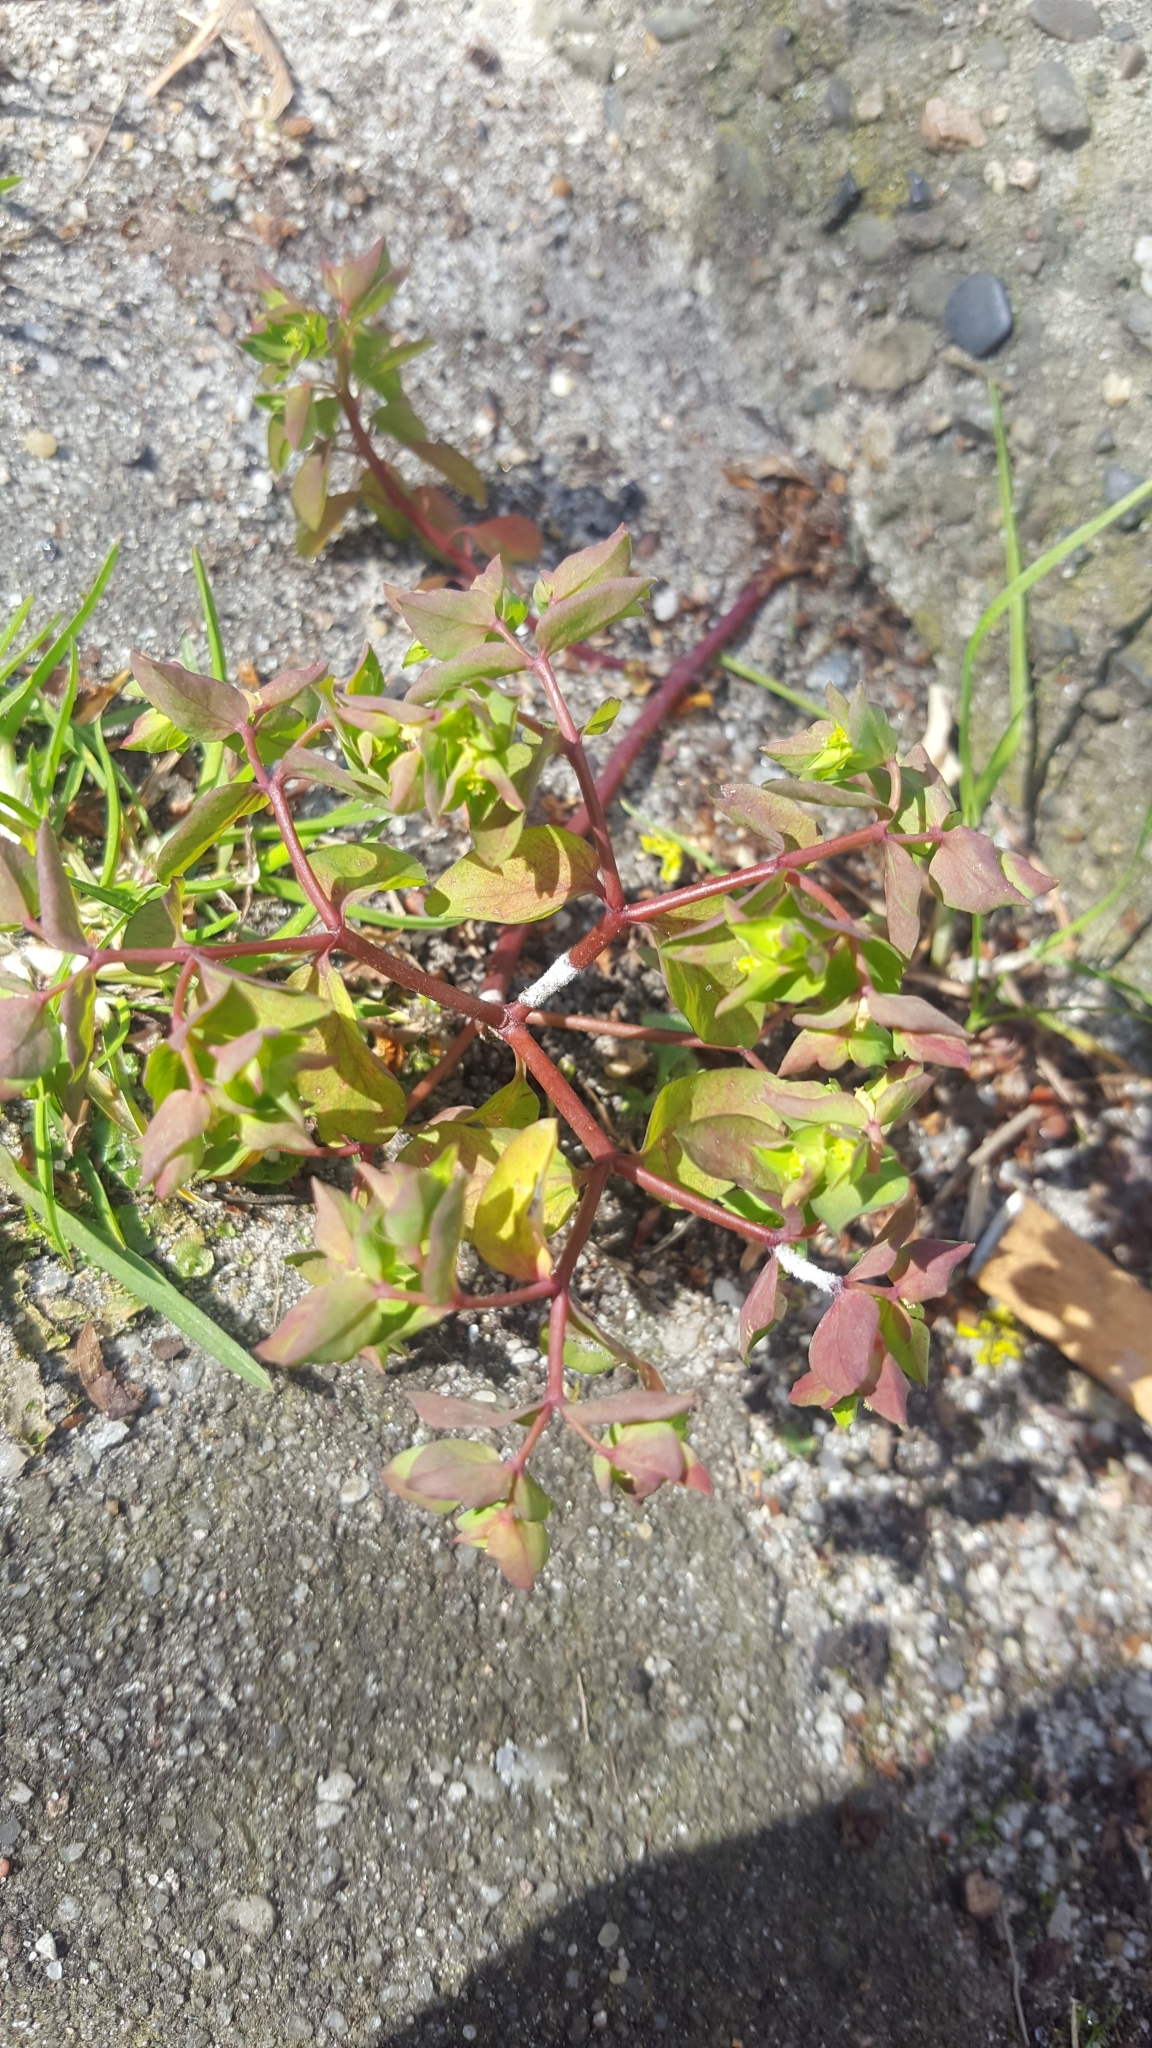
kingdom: Plantae
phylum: Tracheophyta
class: Magnoliopsida
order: Malpighiales
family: Euphorbiaceae
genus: Euphorbia
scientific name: Euphorbia peplus
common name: Petty spurge
